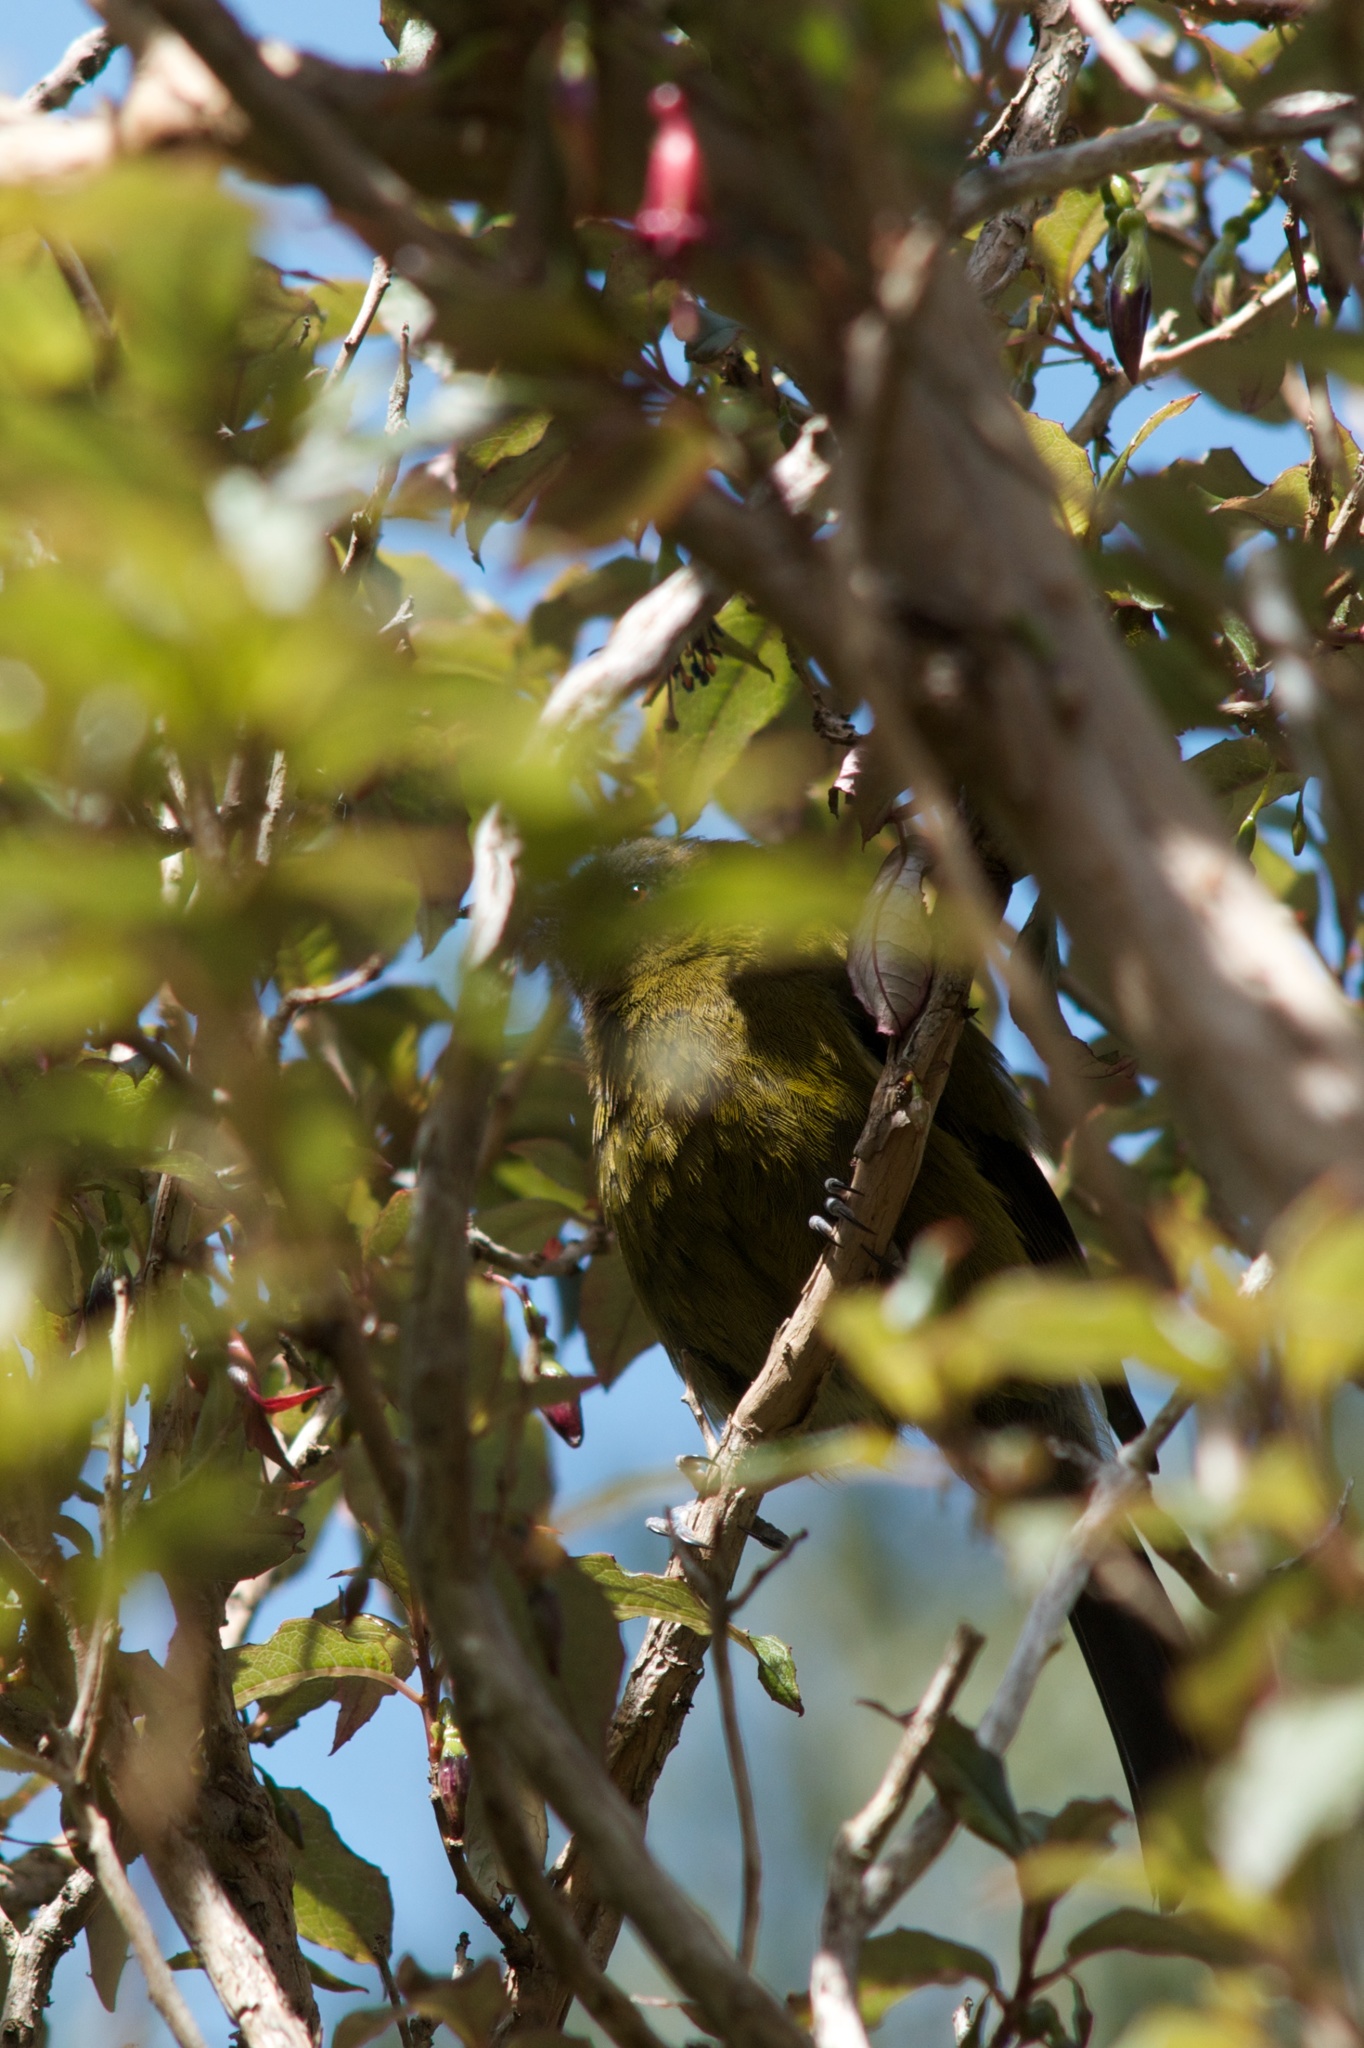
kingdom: Animalia
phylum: Chordata
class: Aves
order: Passeriformes
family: Meliphagidae
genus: Anthornis
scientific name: Anthornis melanura
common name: New zealand bellbird
